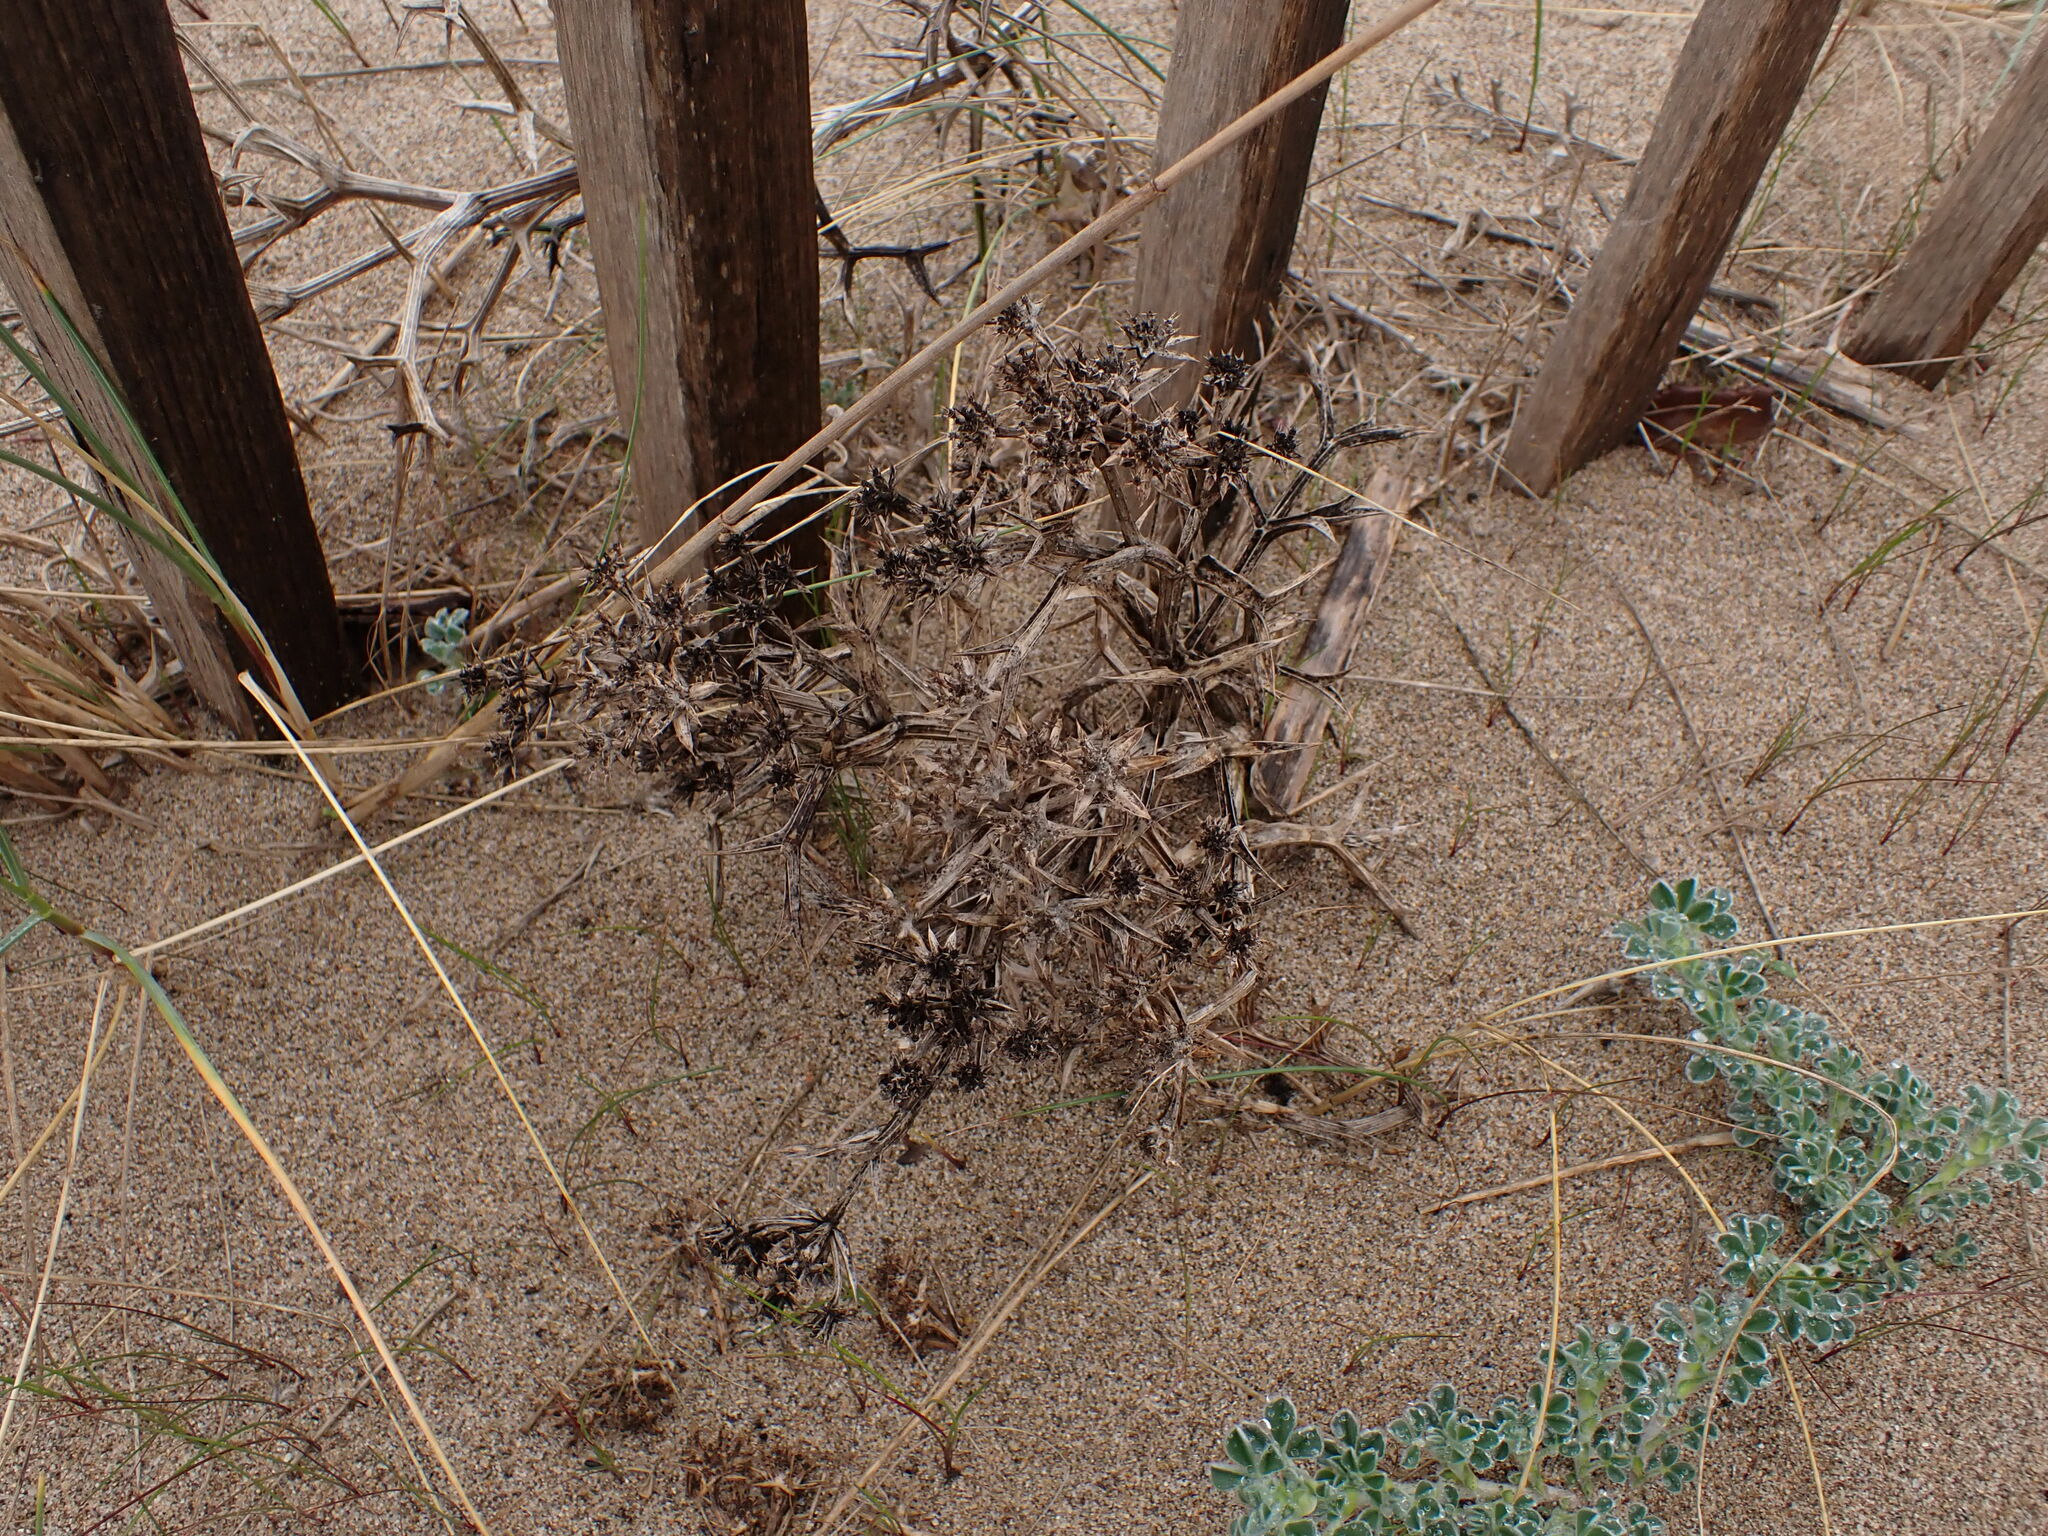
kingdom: Plantae
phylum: Tracheophyta
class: Magnoliopsida
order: Apiales
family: Apiaceae
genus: Echinophora
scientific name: Echinophora spinosa
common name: Prickly samphire
